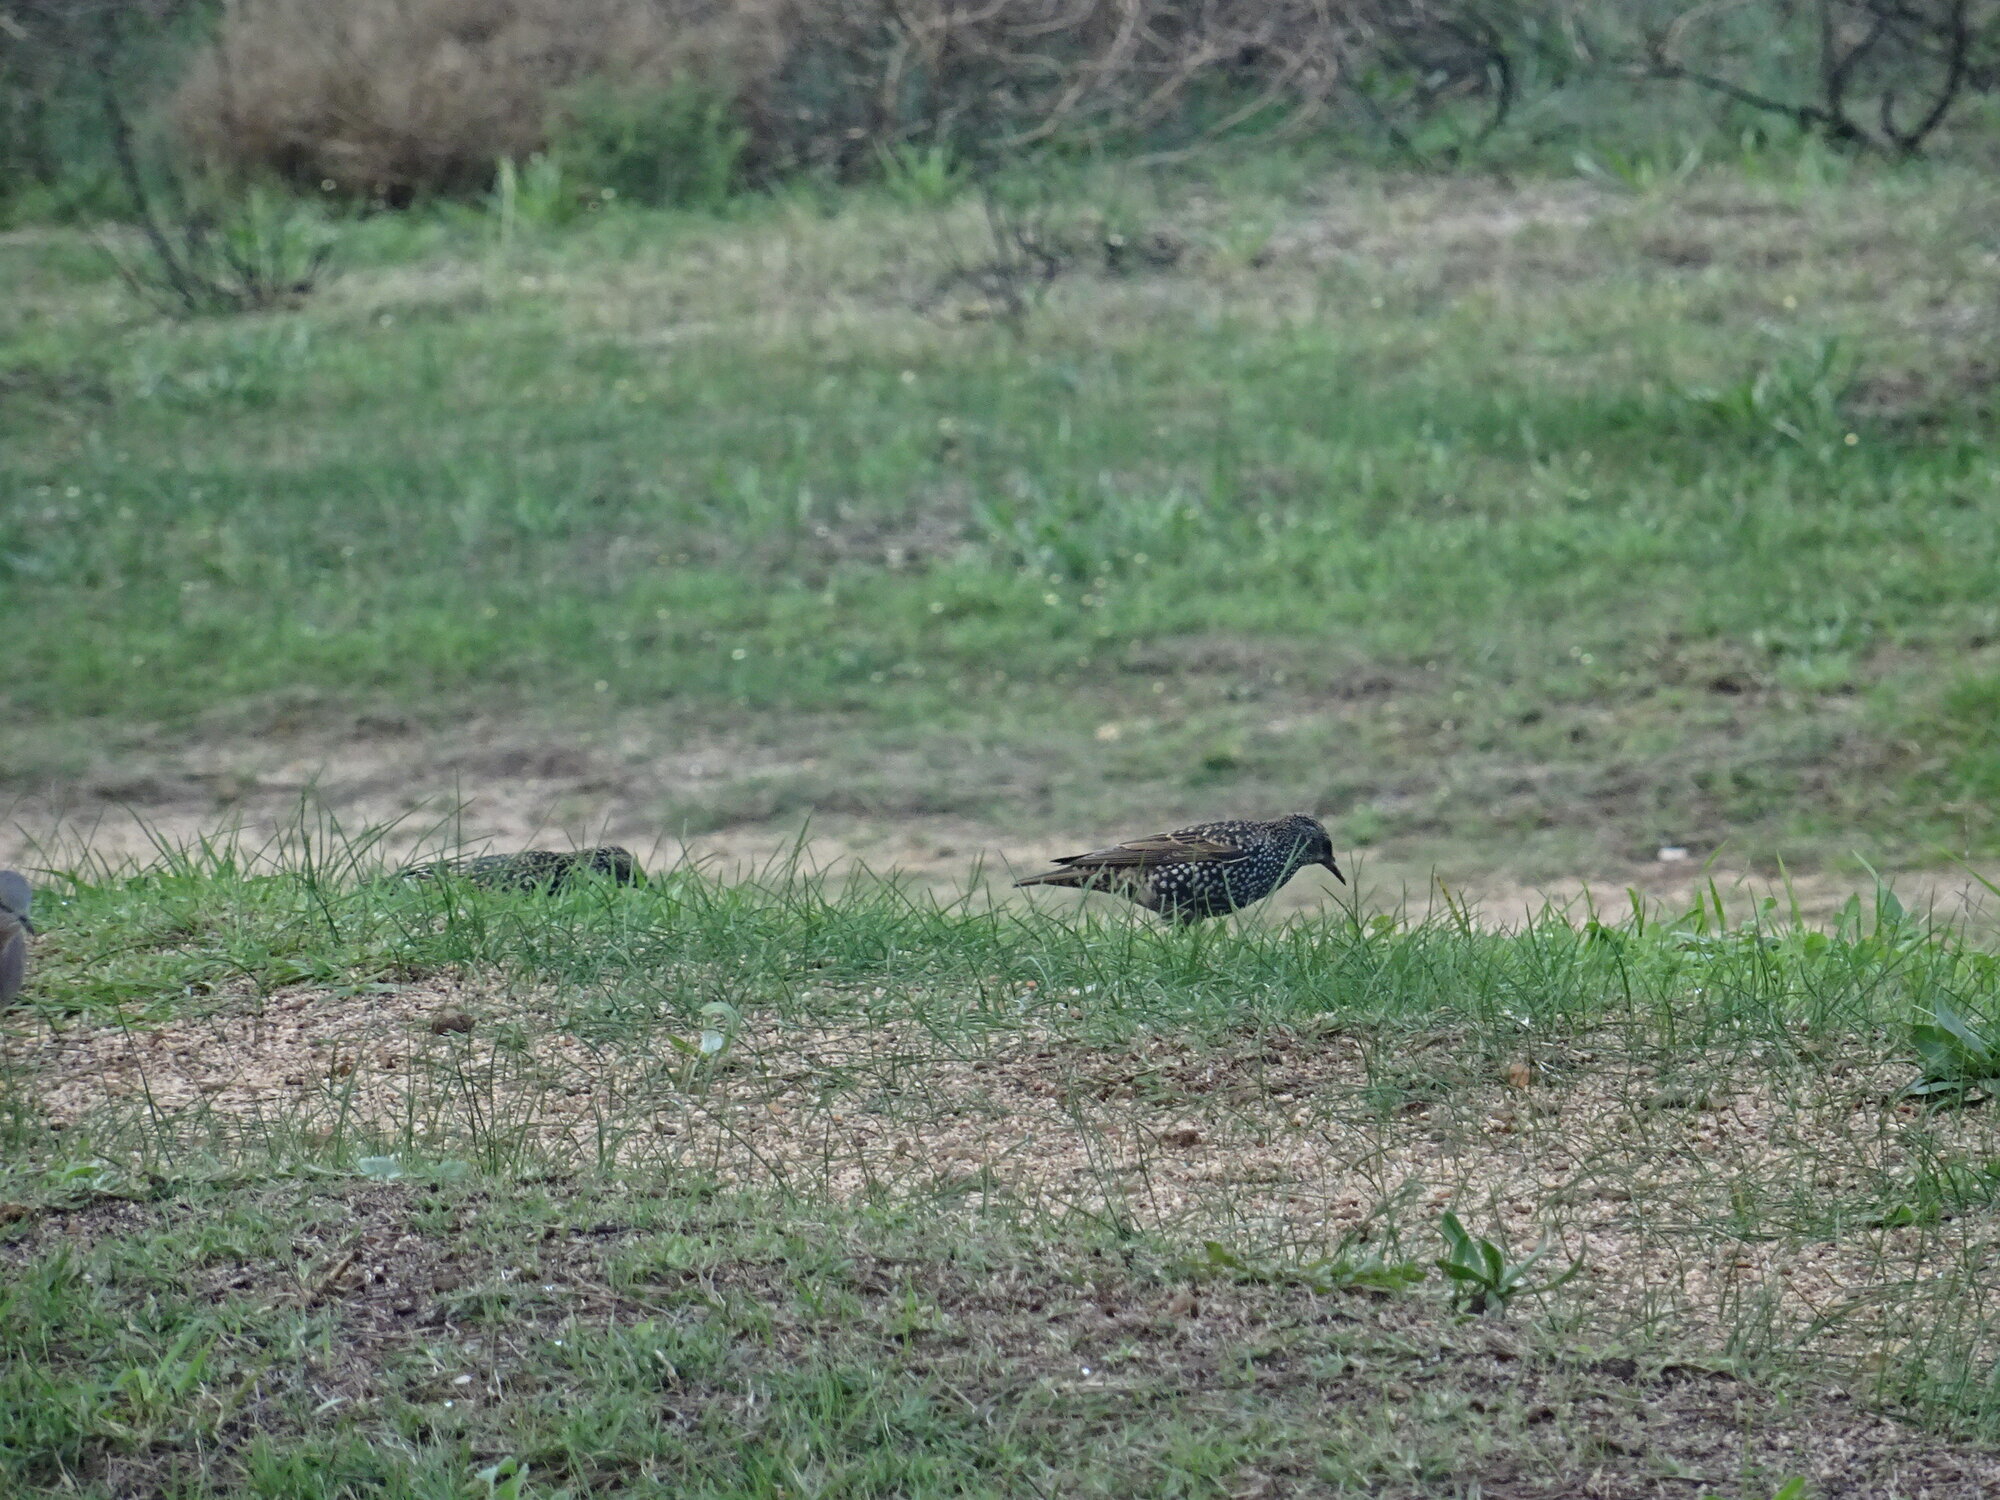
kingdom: Animalia
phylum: Chordata
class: Aves
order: Passeriformes
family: Sturnidae
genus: Sturnus
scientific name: Sturnus vulgaris
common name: Common starling
